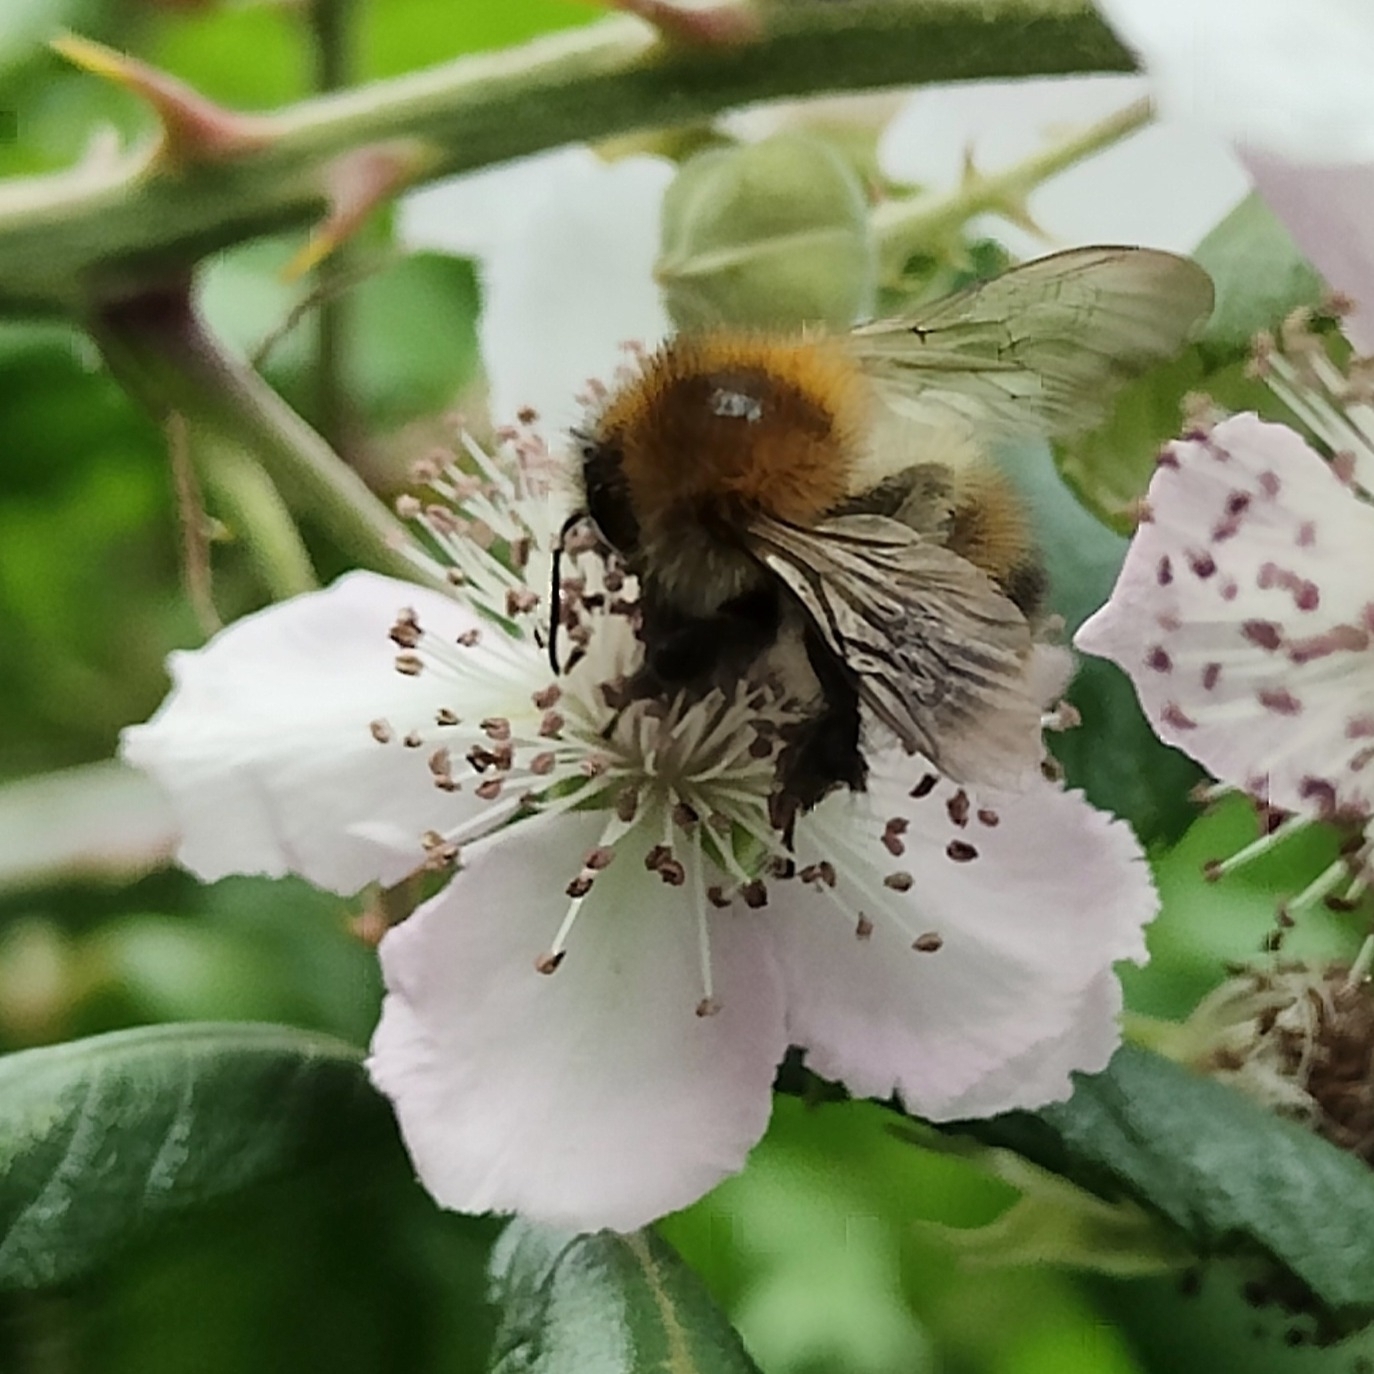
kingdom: Animalia
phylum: Arthropoda
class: Insecta
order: Hymenoptera
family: Apidae
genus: Bombus
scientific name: Bombus pascuorum
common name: Common carder bee
